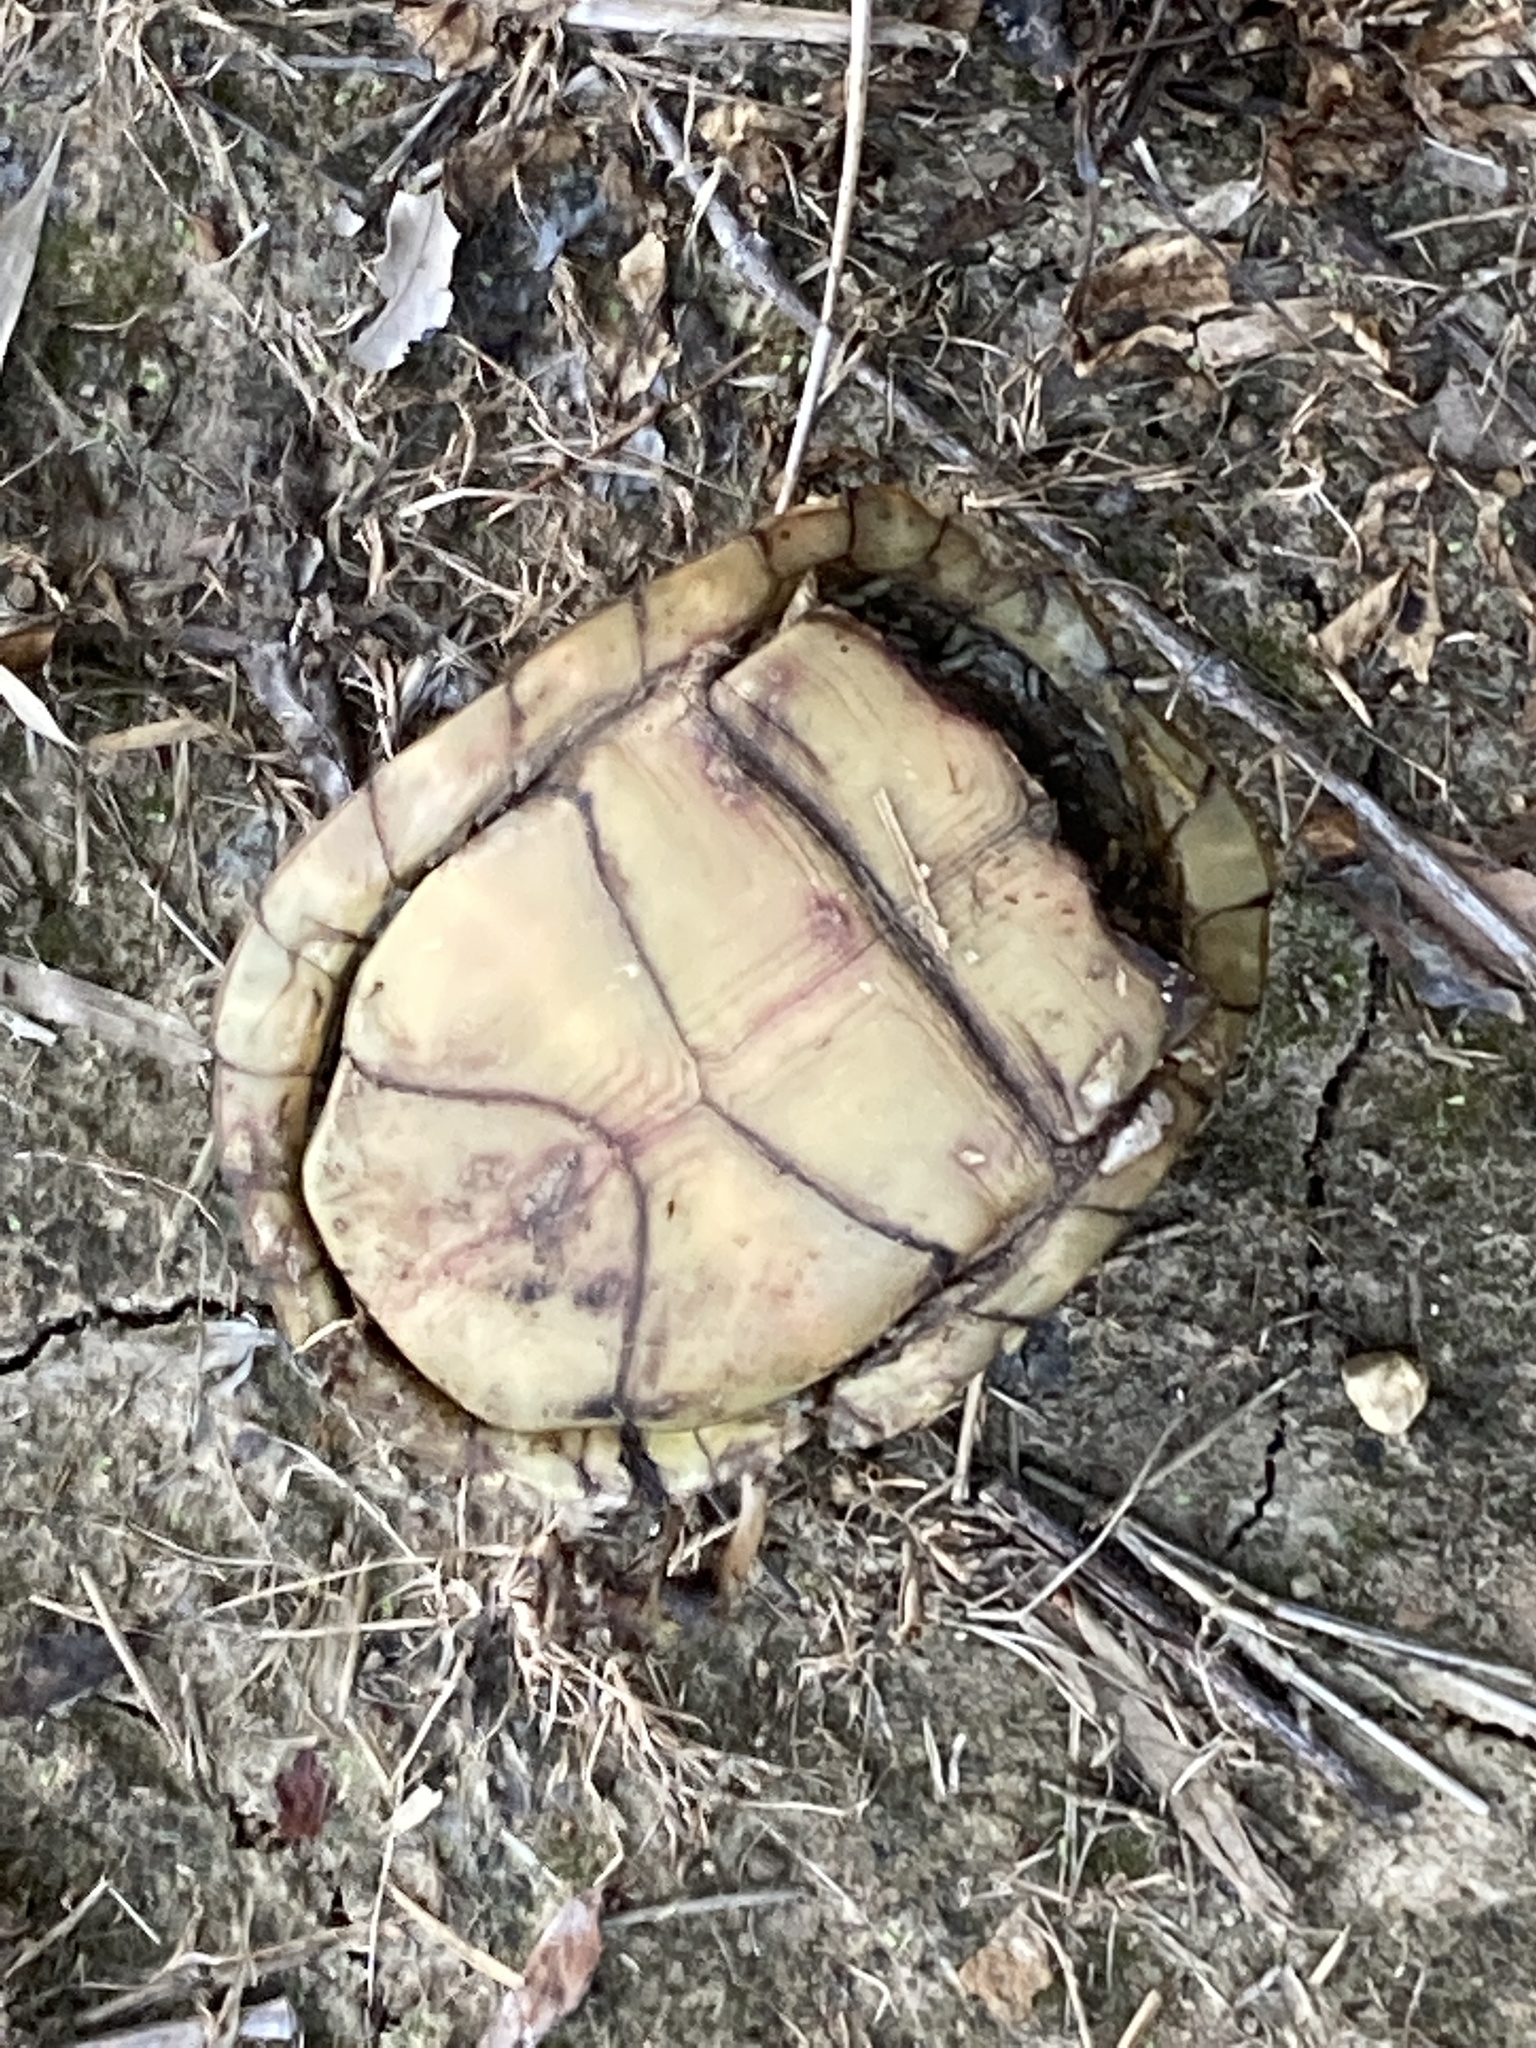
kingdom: Animalia
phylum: Chordata
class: Testudines
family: Emydidae
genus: Terrapene
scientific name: Terrapene carolina
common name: Common box turtle
